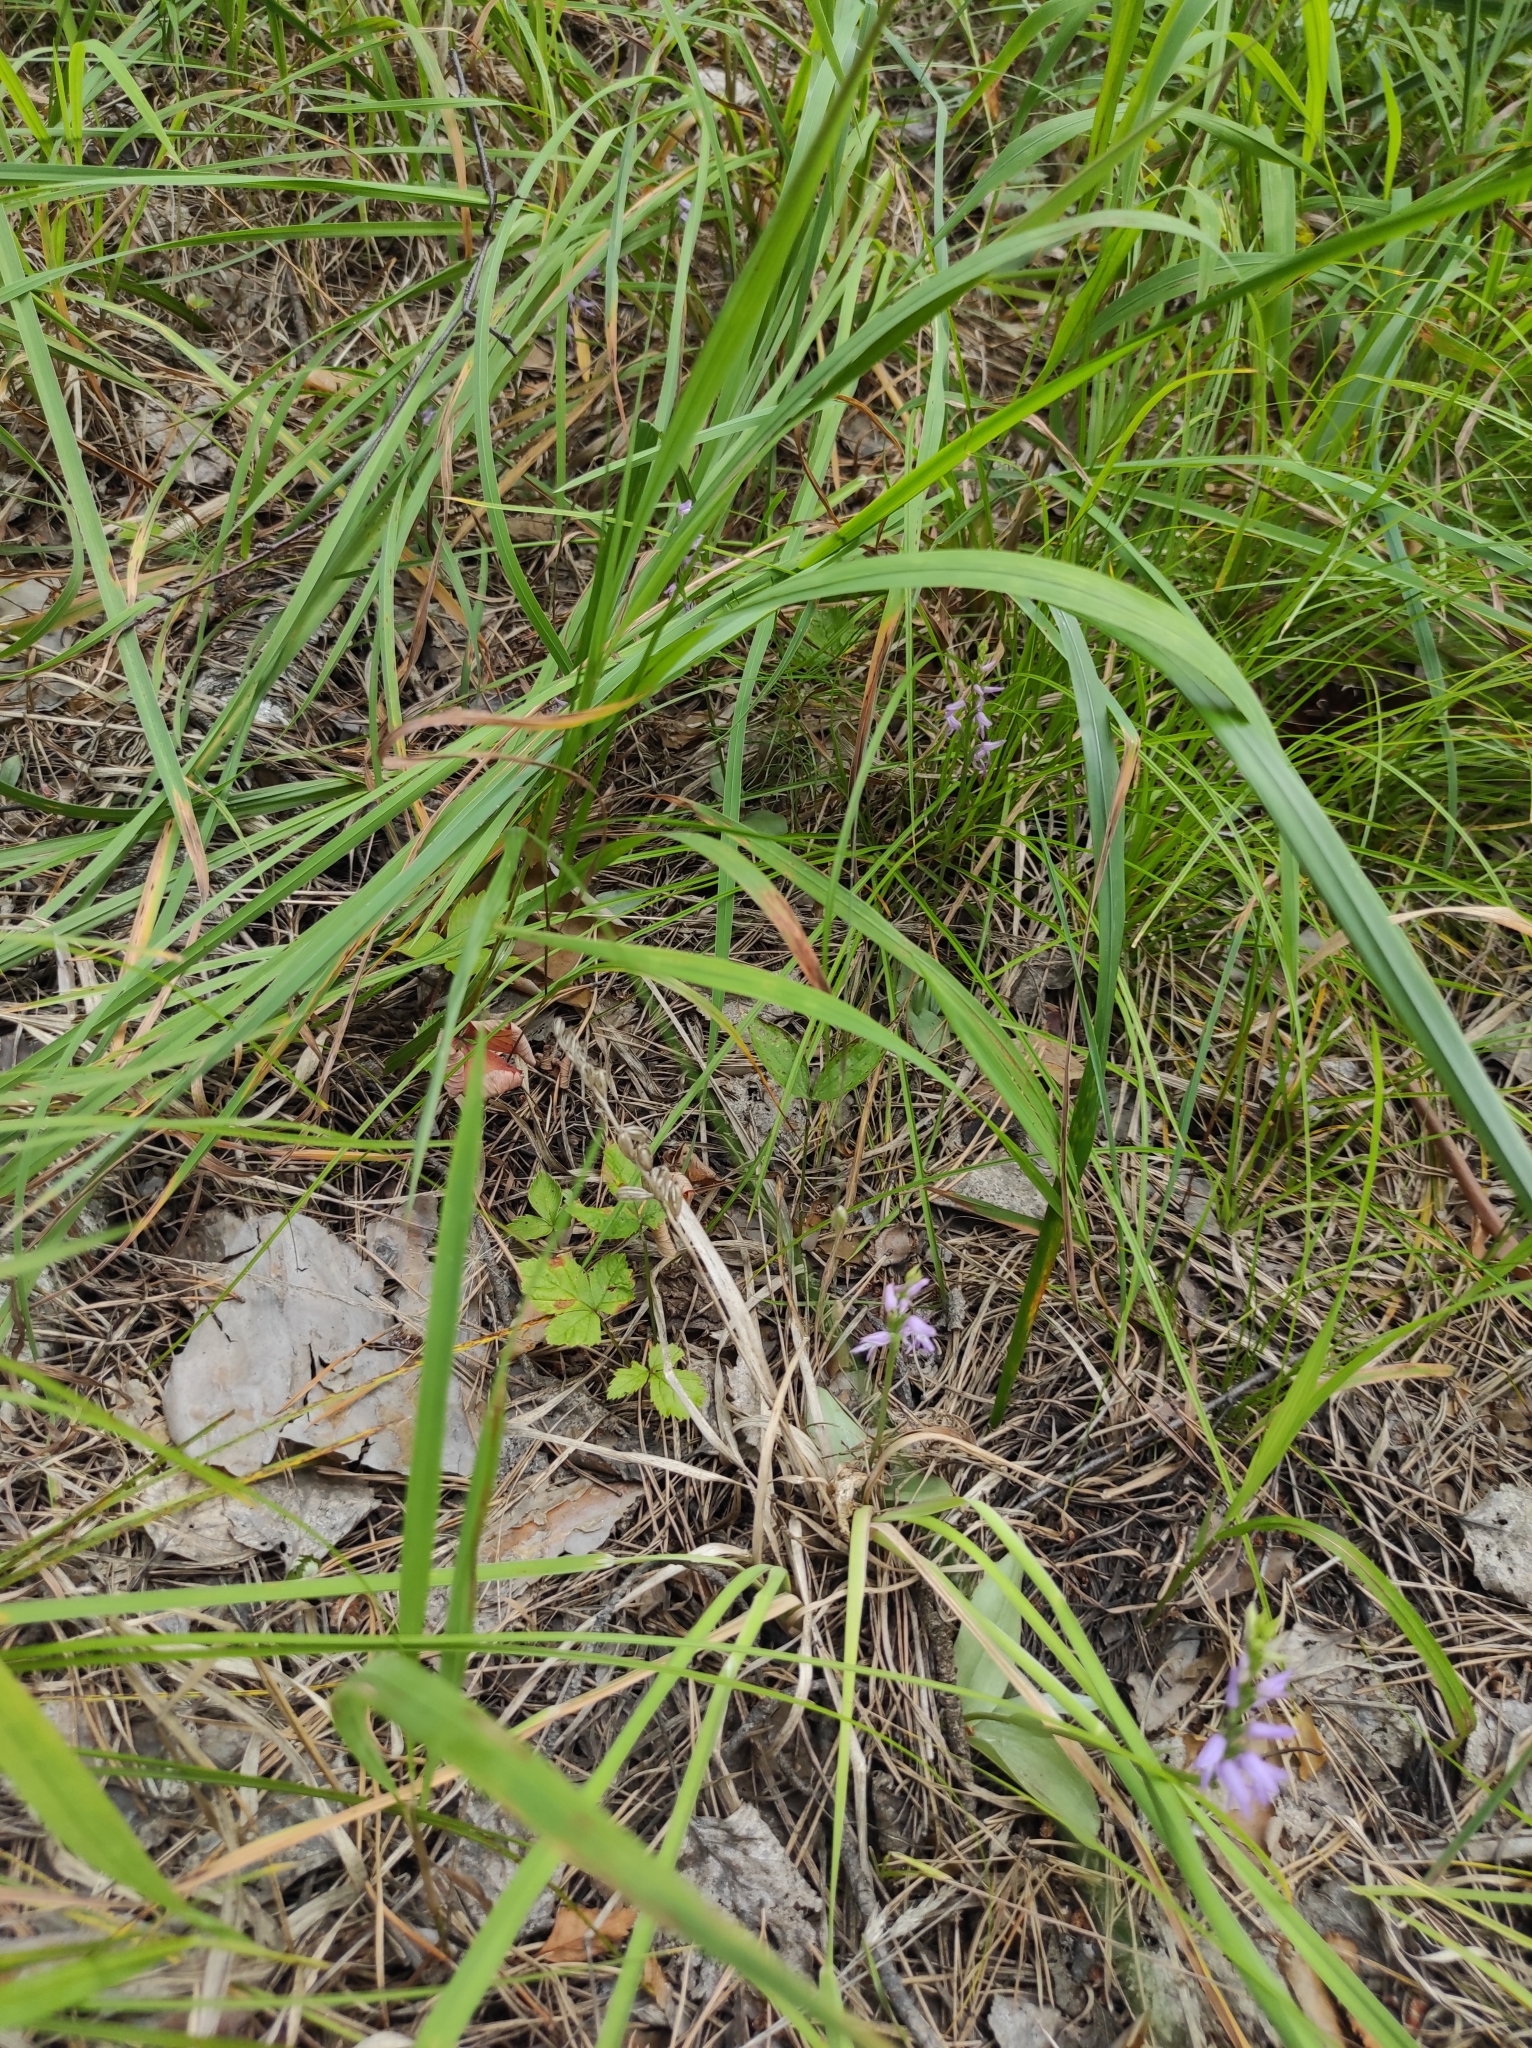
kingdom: Plantae
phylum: Tracheophyta
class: Liliopsida
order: Asparagales
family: Orchidaceae
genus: Hemipilia
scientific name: Hemipilia cucullata
